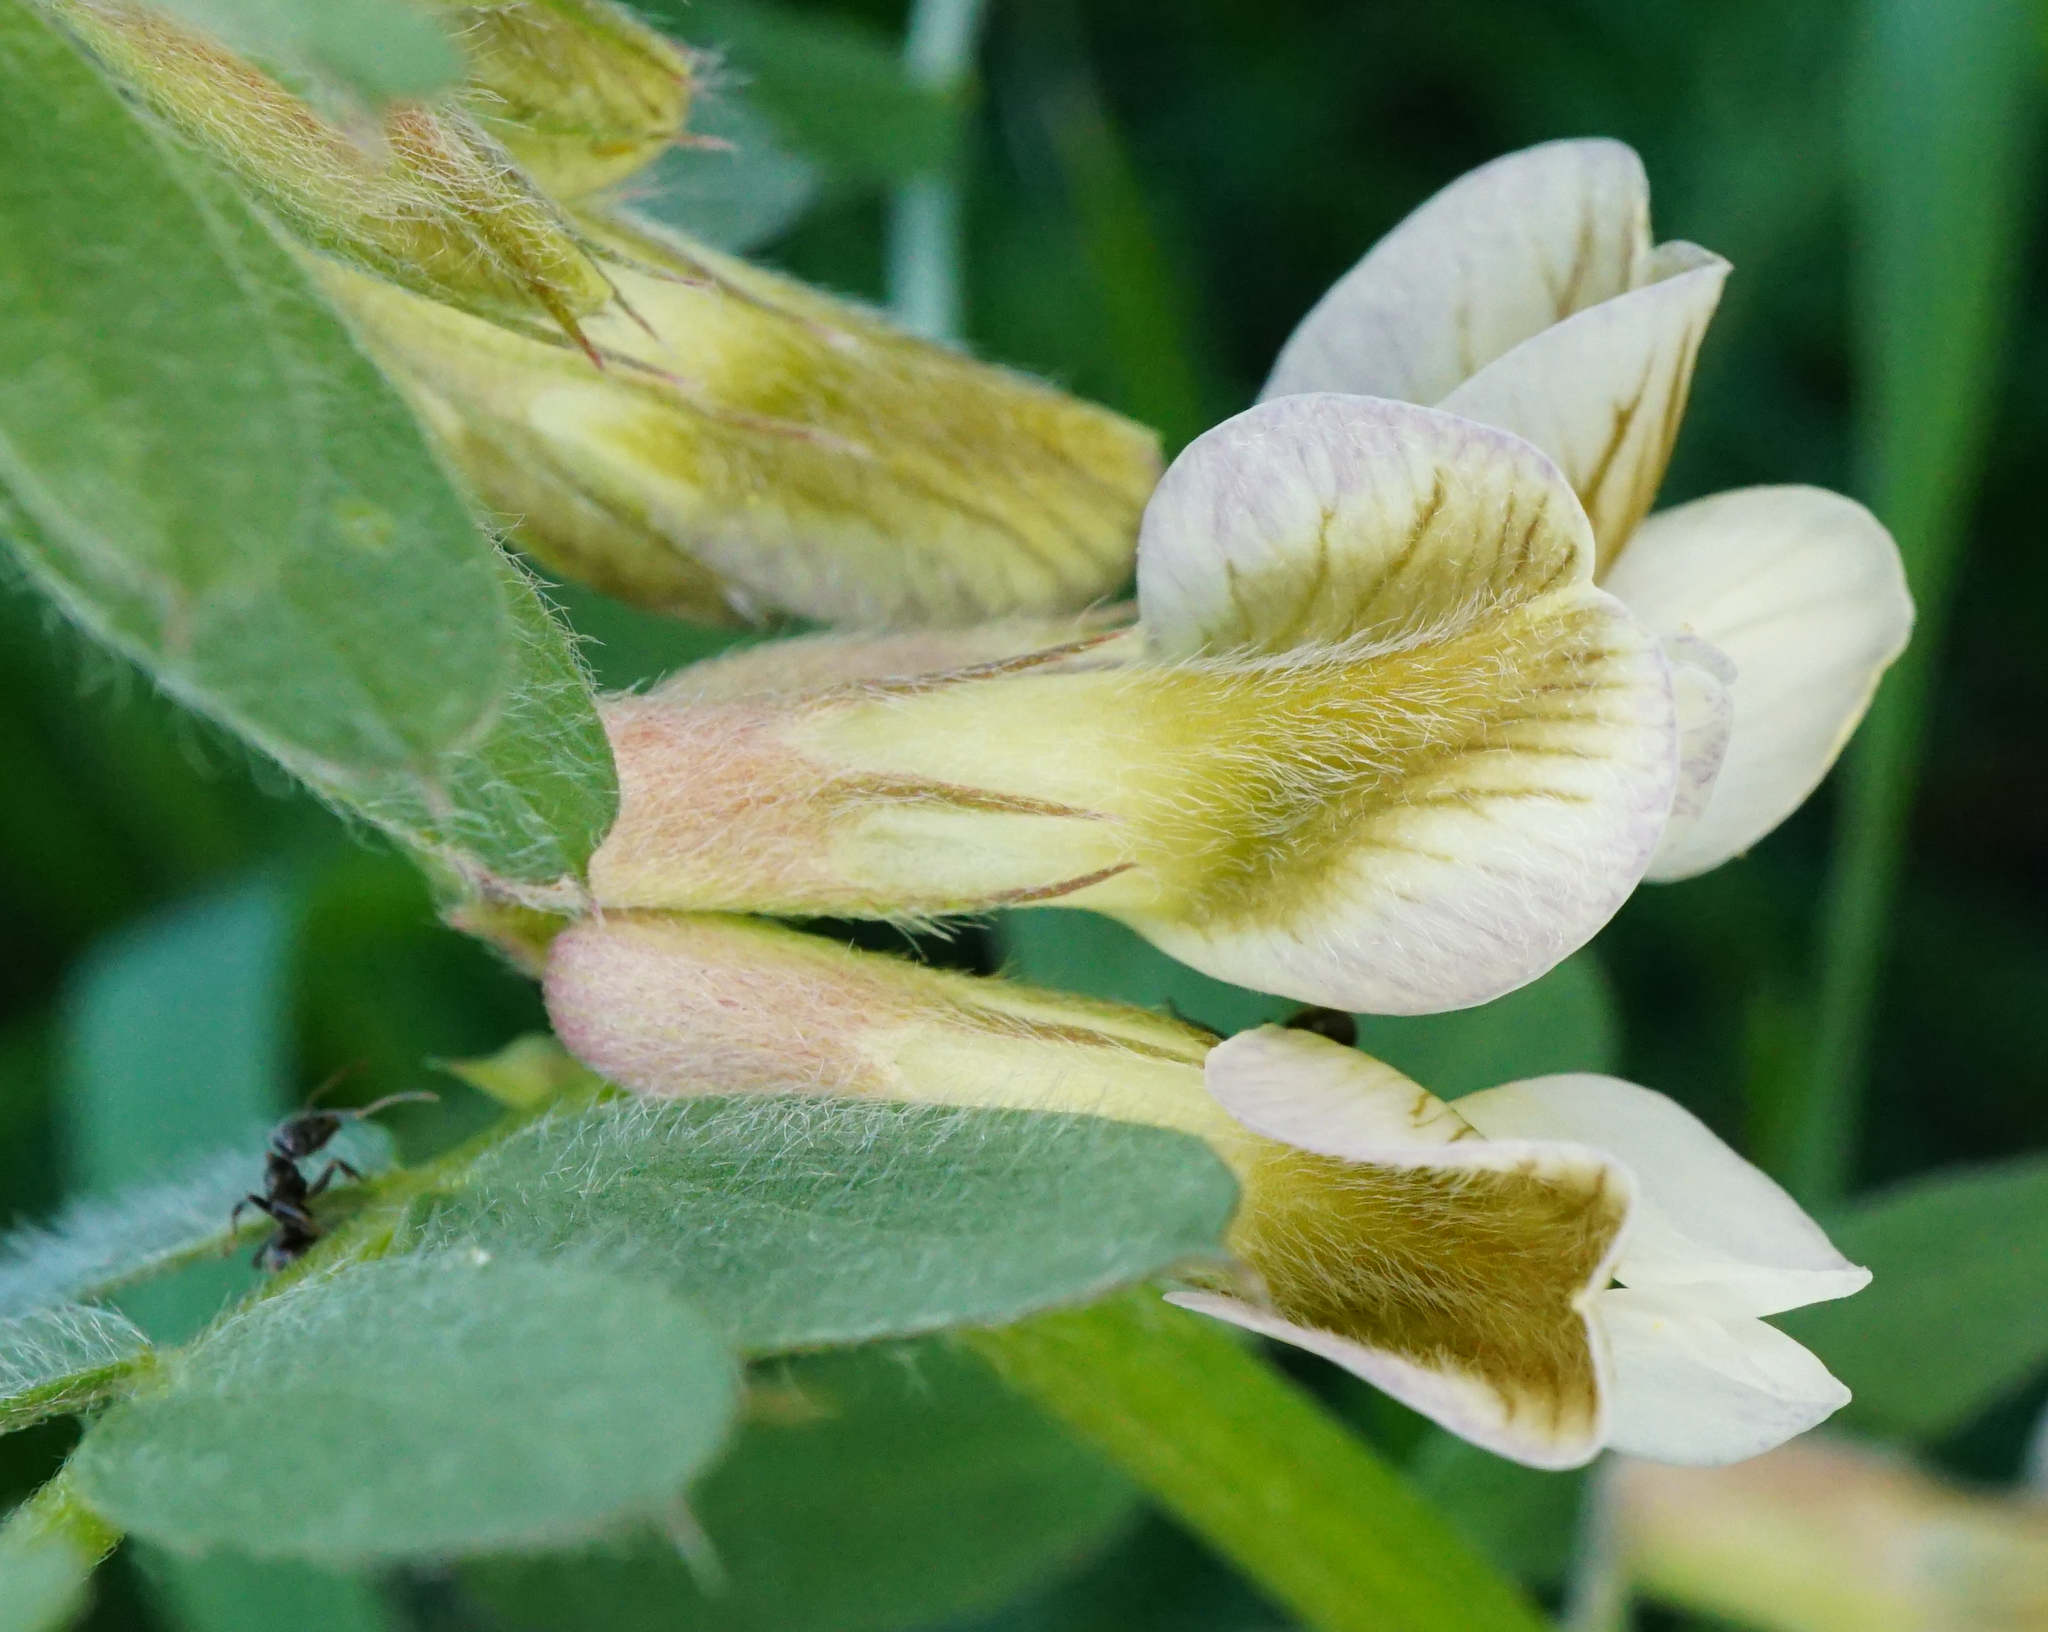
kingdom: Plantae
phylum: Tracheophyta
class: Magnoliopsida
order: Fabales
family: Fabaceae
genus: Vicia
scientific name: Vicia pannonica
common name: Hungarian vetch
